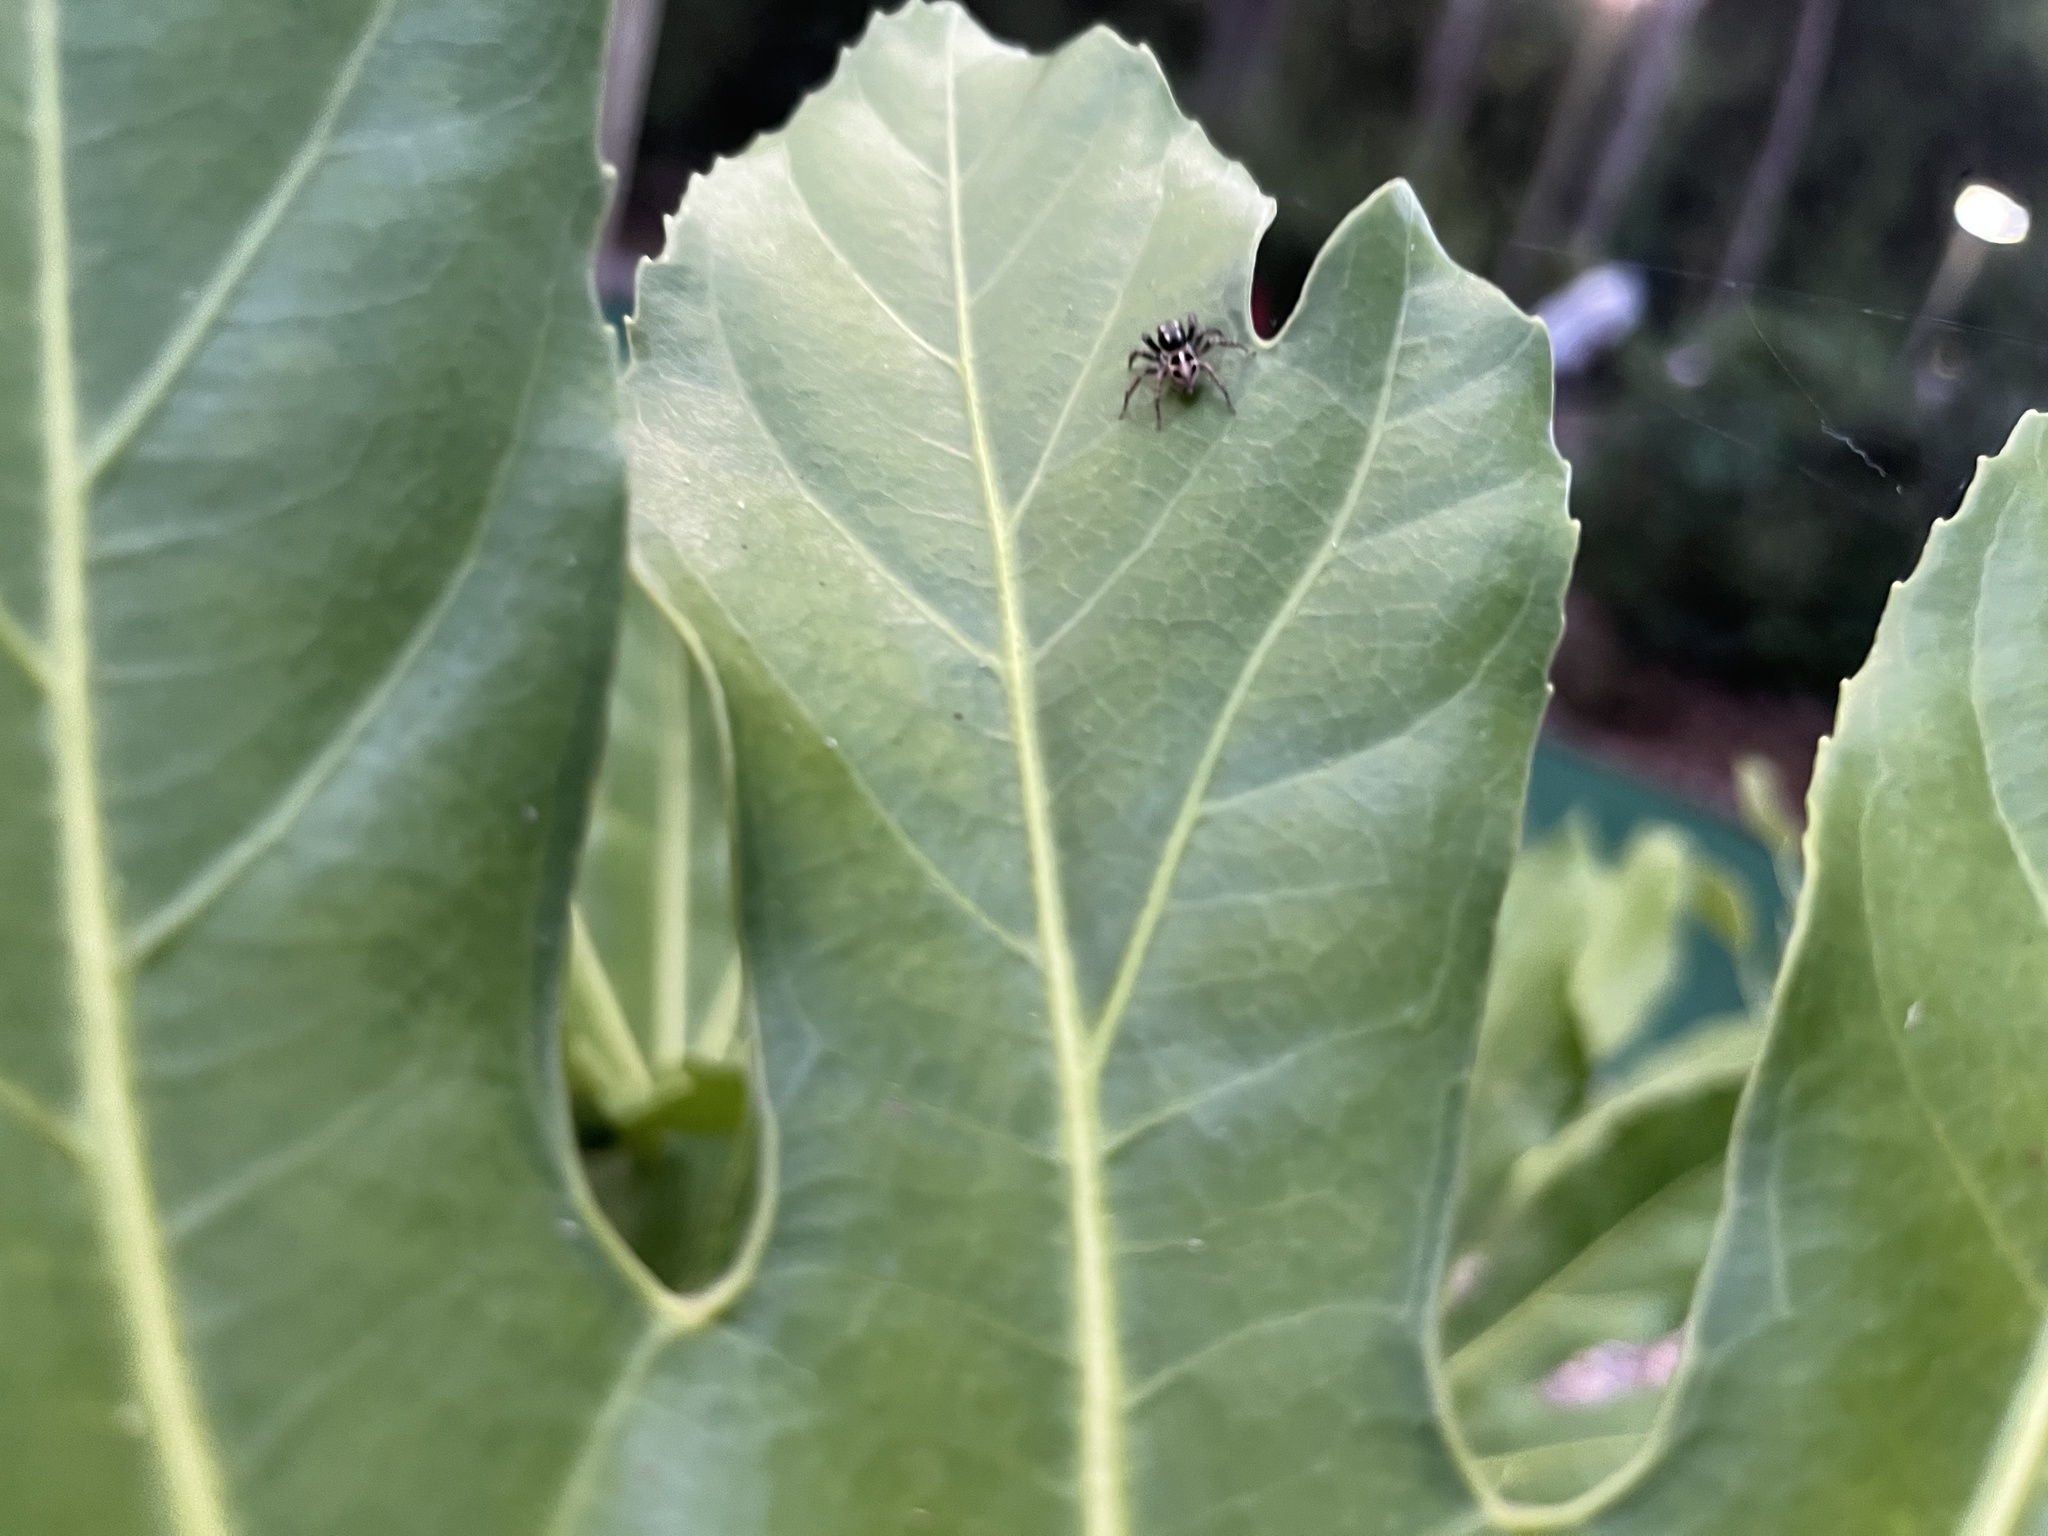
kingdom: Animalia
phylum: Arthropoda
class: Arachnida
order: Araneae
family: Salticidae
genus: Anasaitis
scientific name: Anasaitis canosa
